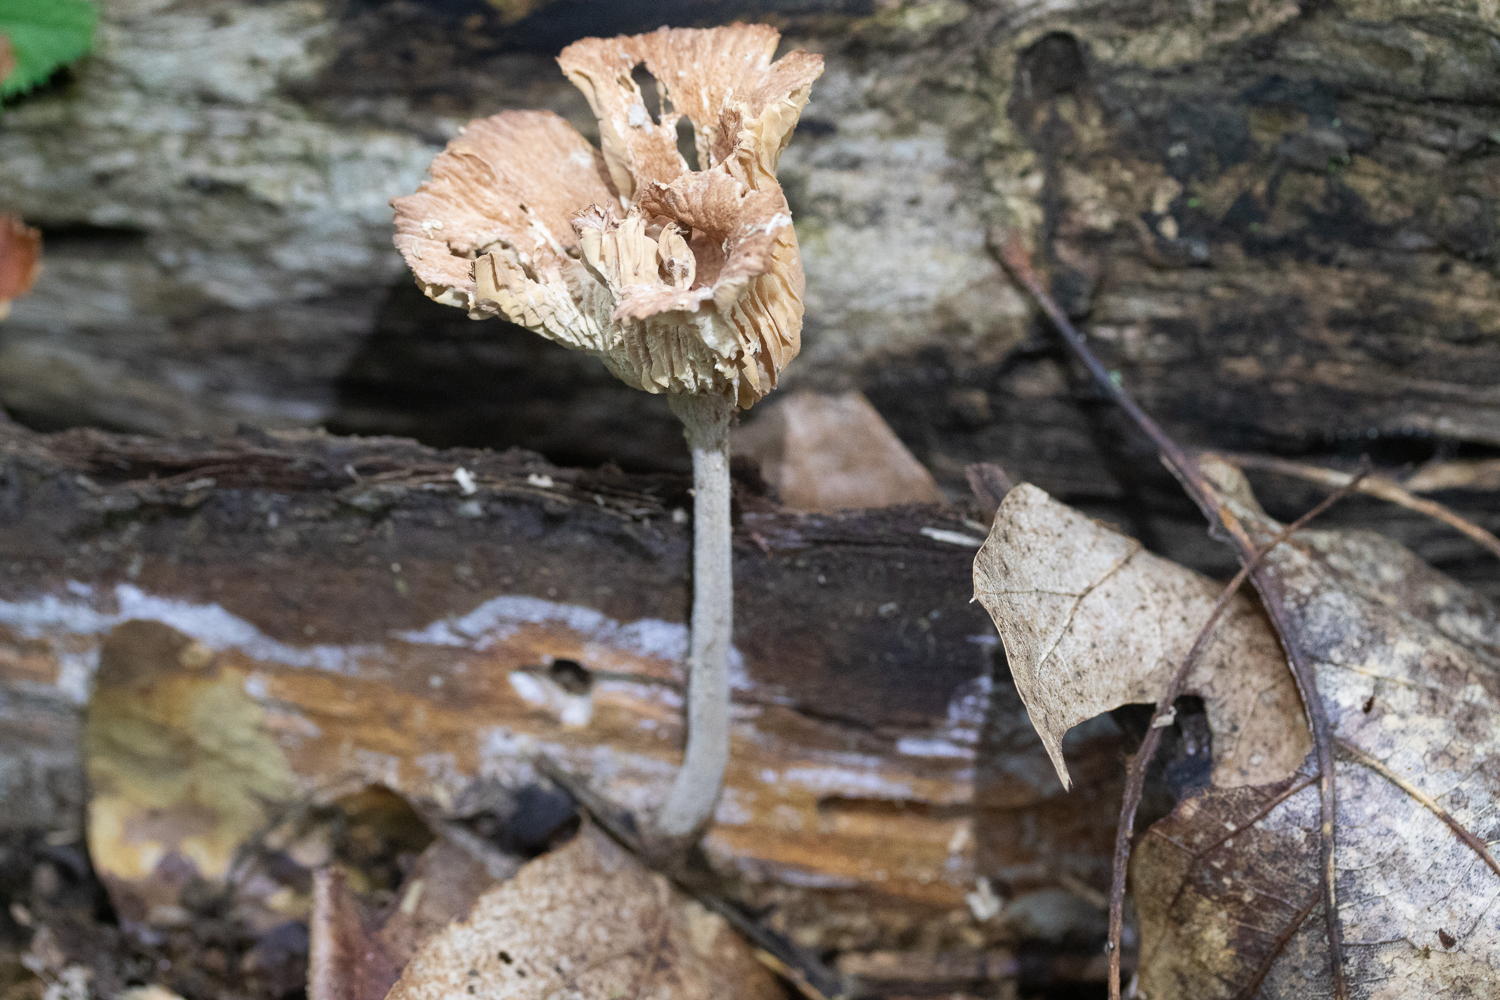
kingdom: Fungi
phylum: Basidiomycota
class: Agaricomycetes
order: Agaricales
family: Omphalotaceae
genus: Collybiopsis
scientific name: Collybiopsis dichroa
